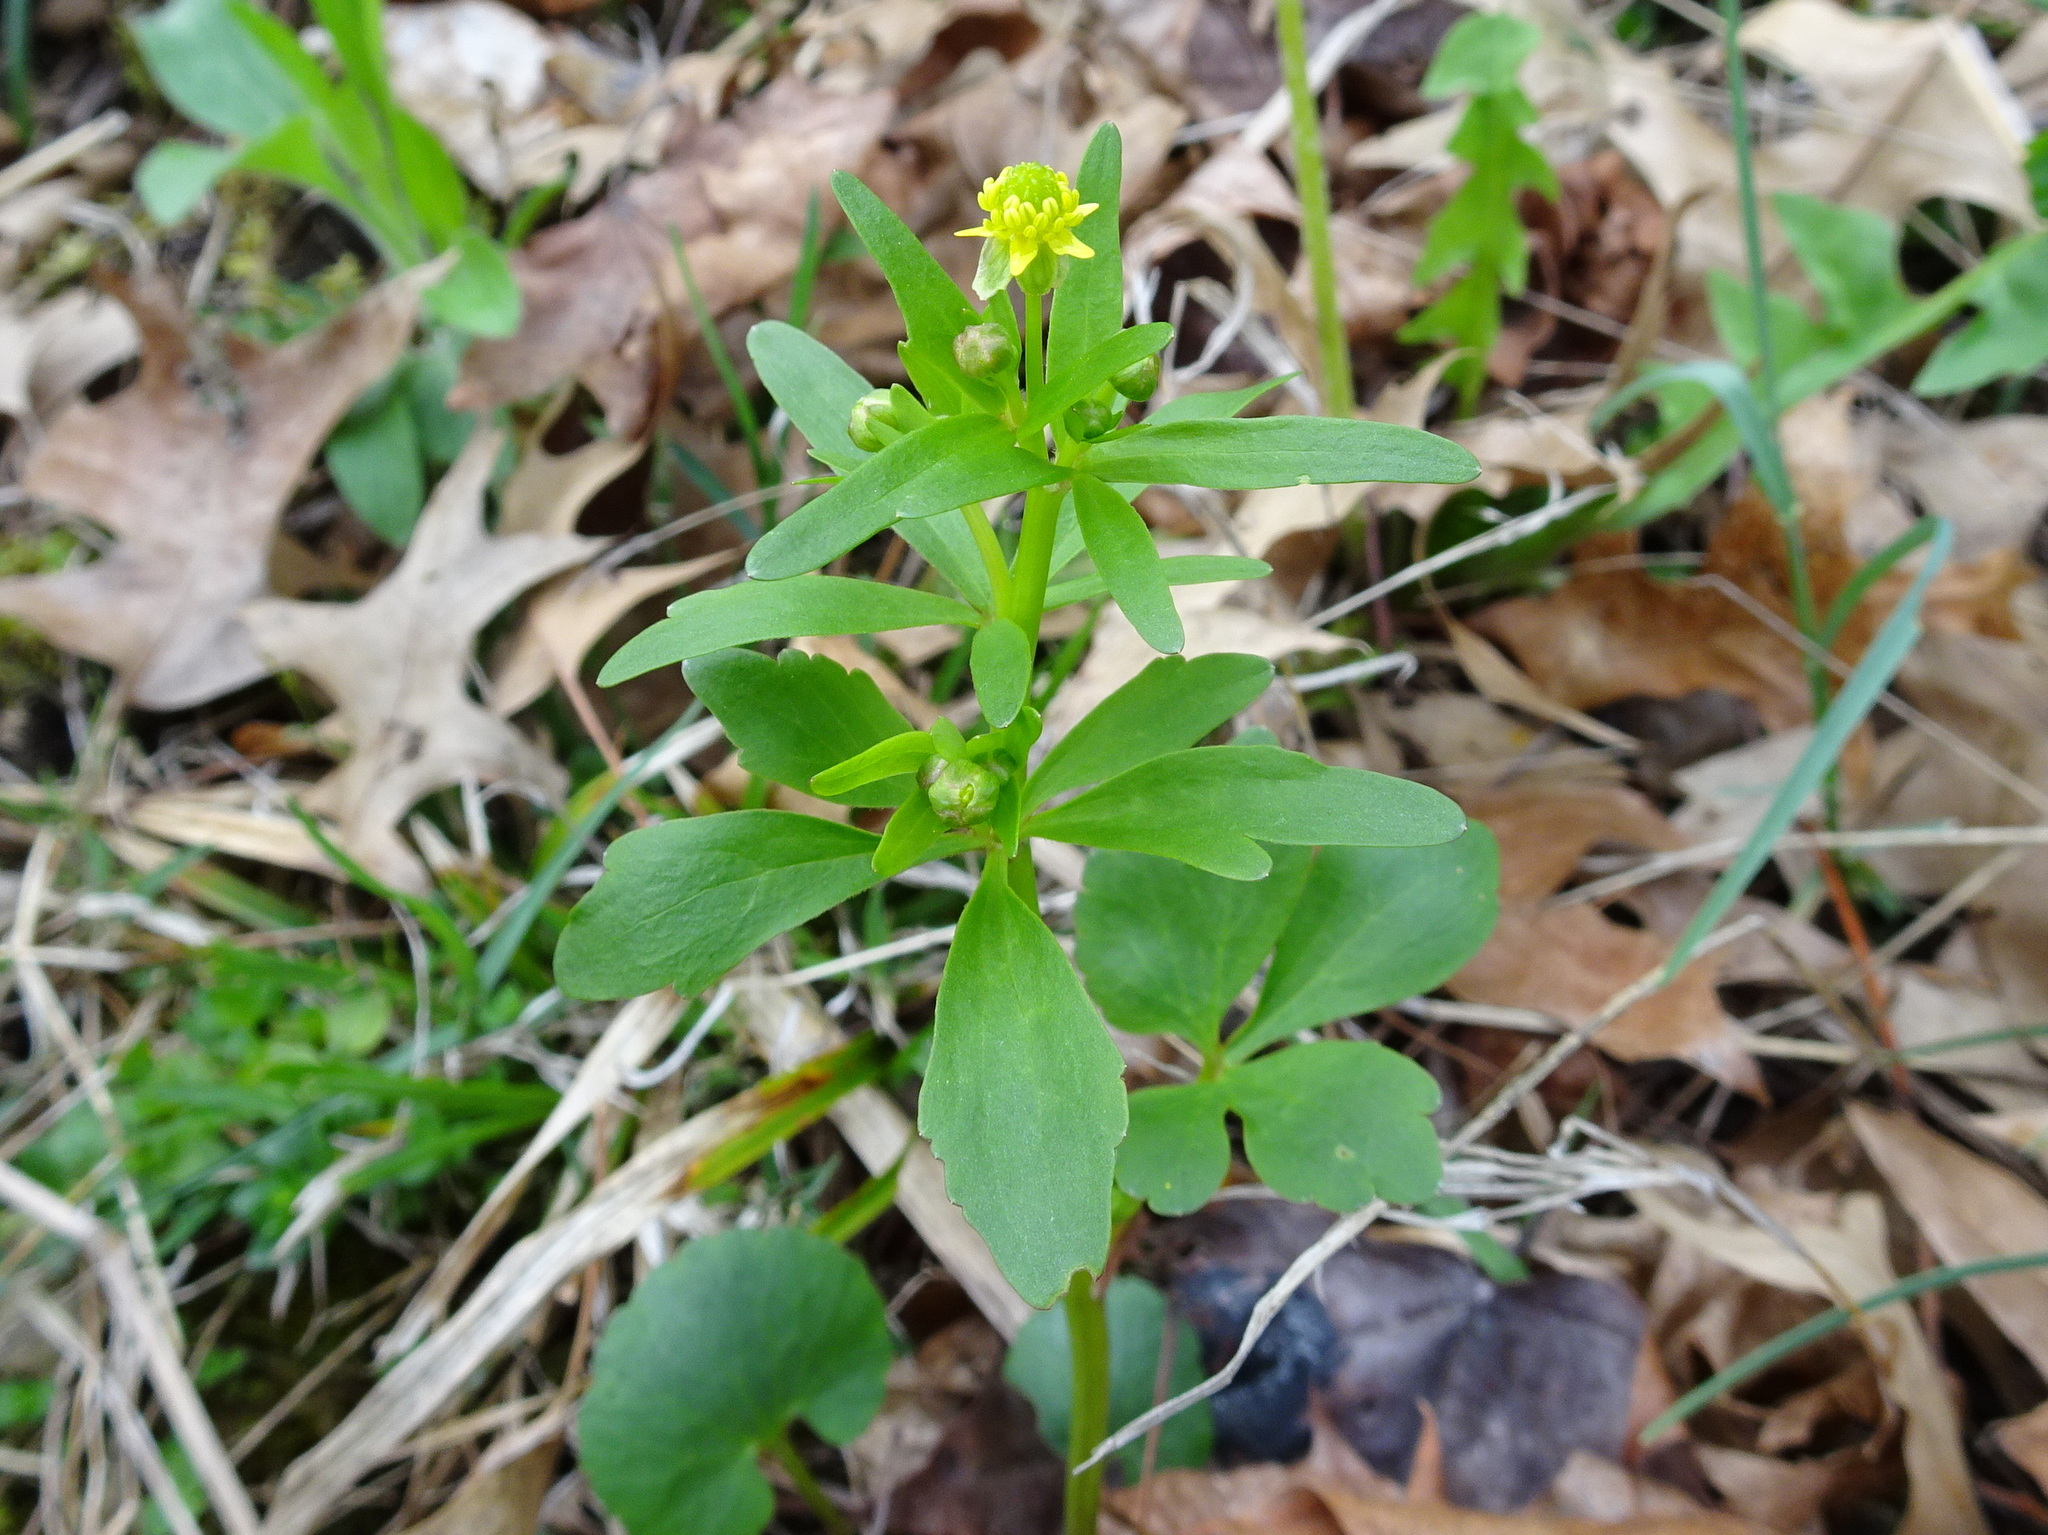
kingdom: Plantae
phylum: Tracheophyta
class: Magnoliopsida
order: Ranunculales
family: Ranunculaceae
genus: Ranunculus
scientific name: Ranunculus abortivus
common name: Early wood buttercup
